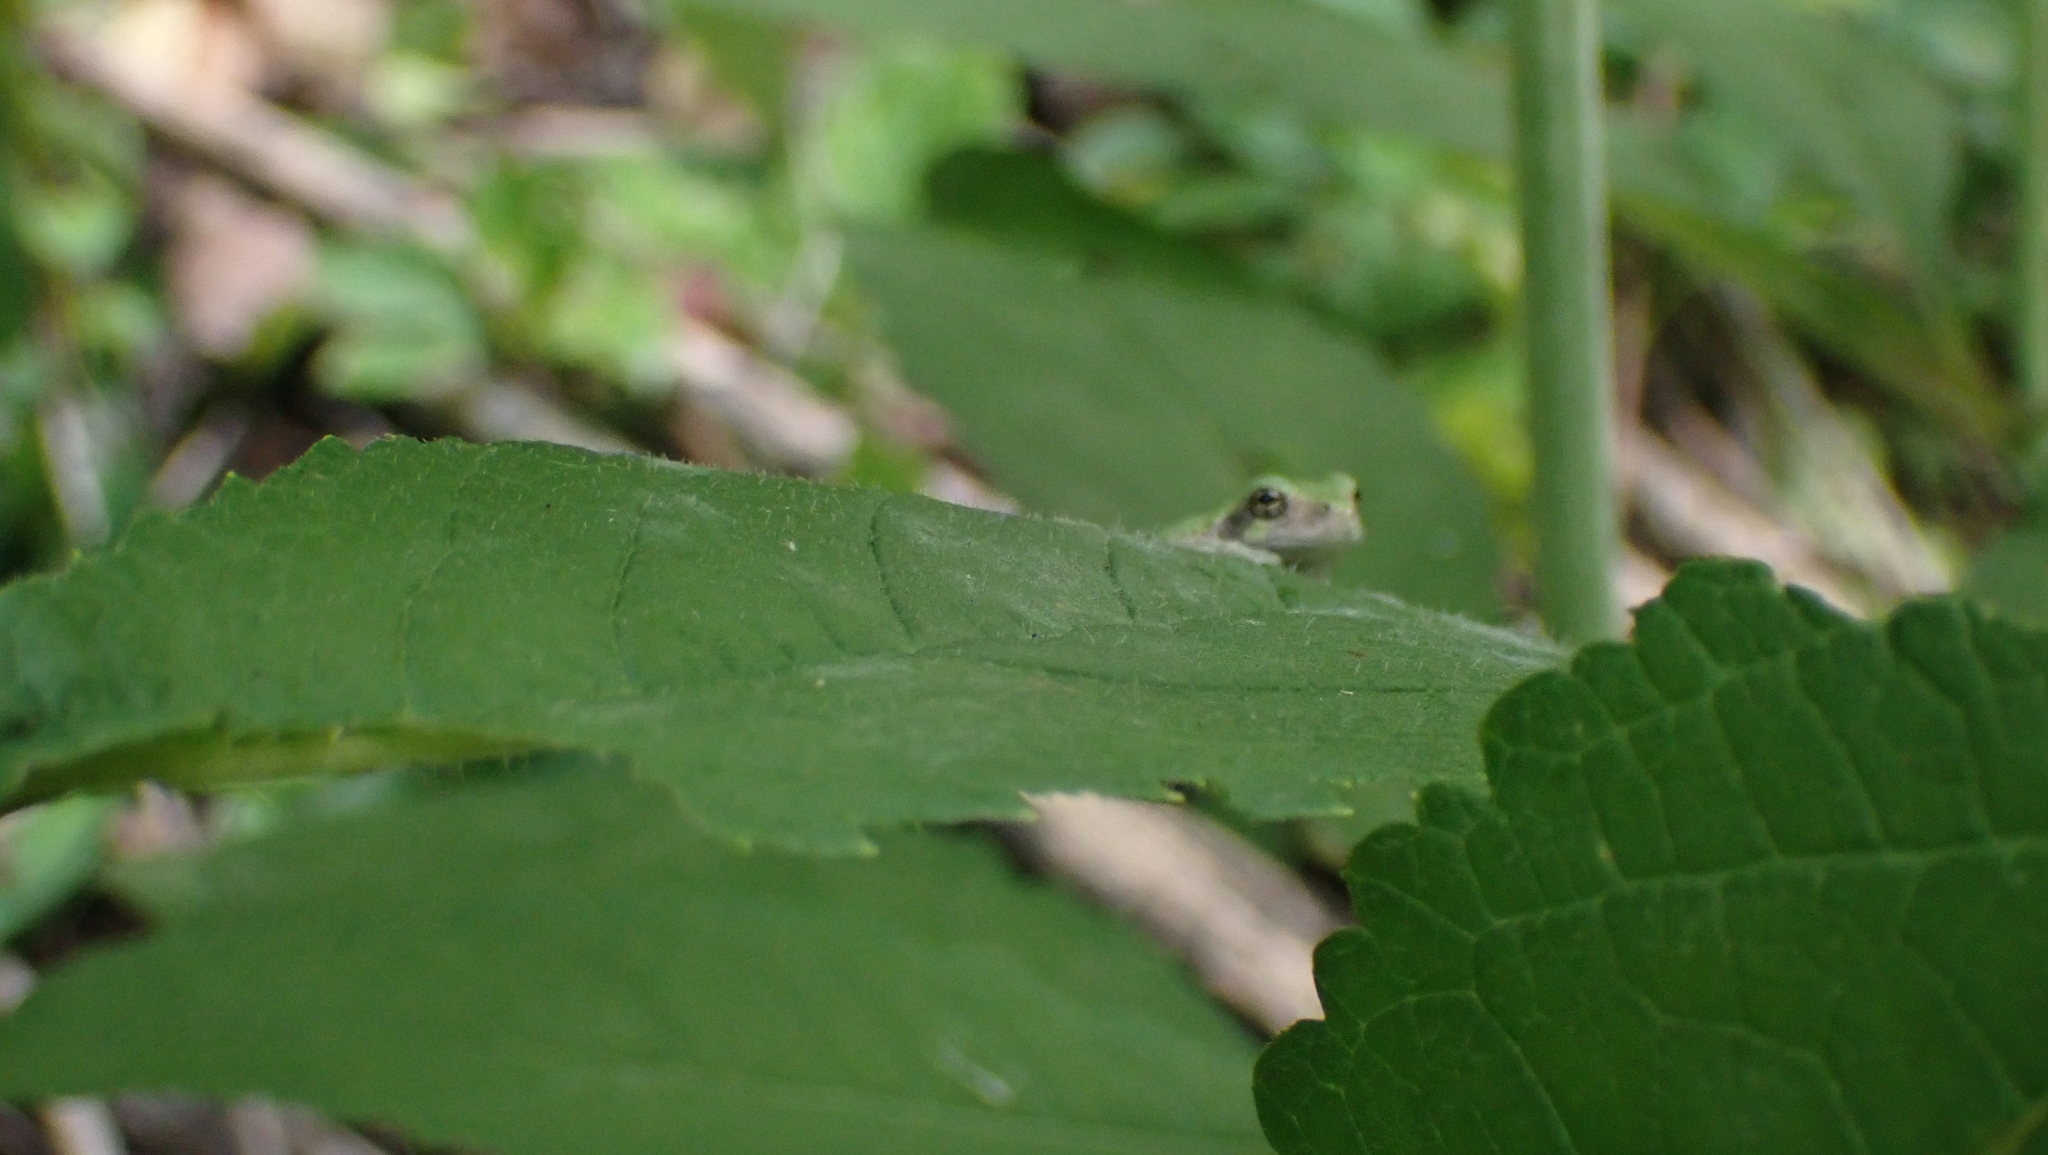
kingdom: Animalia
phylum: Chordata
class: Amphibia
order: Anura
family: Hylidae
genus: Dryophytes
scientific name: Dryophytes chrysoscelis
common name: Cope's gray treefrog
